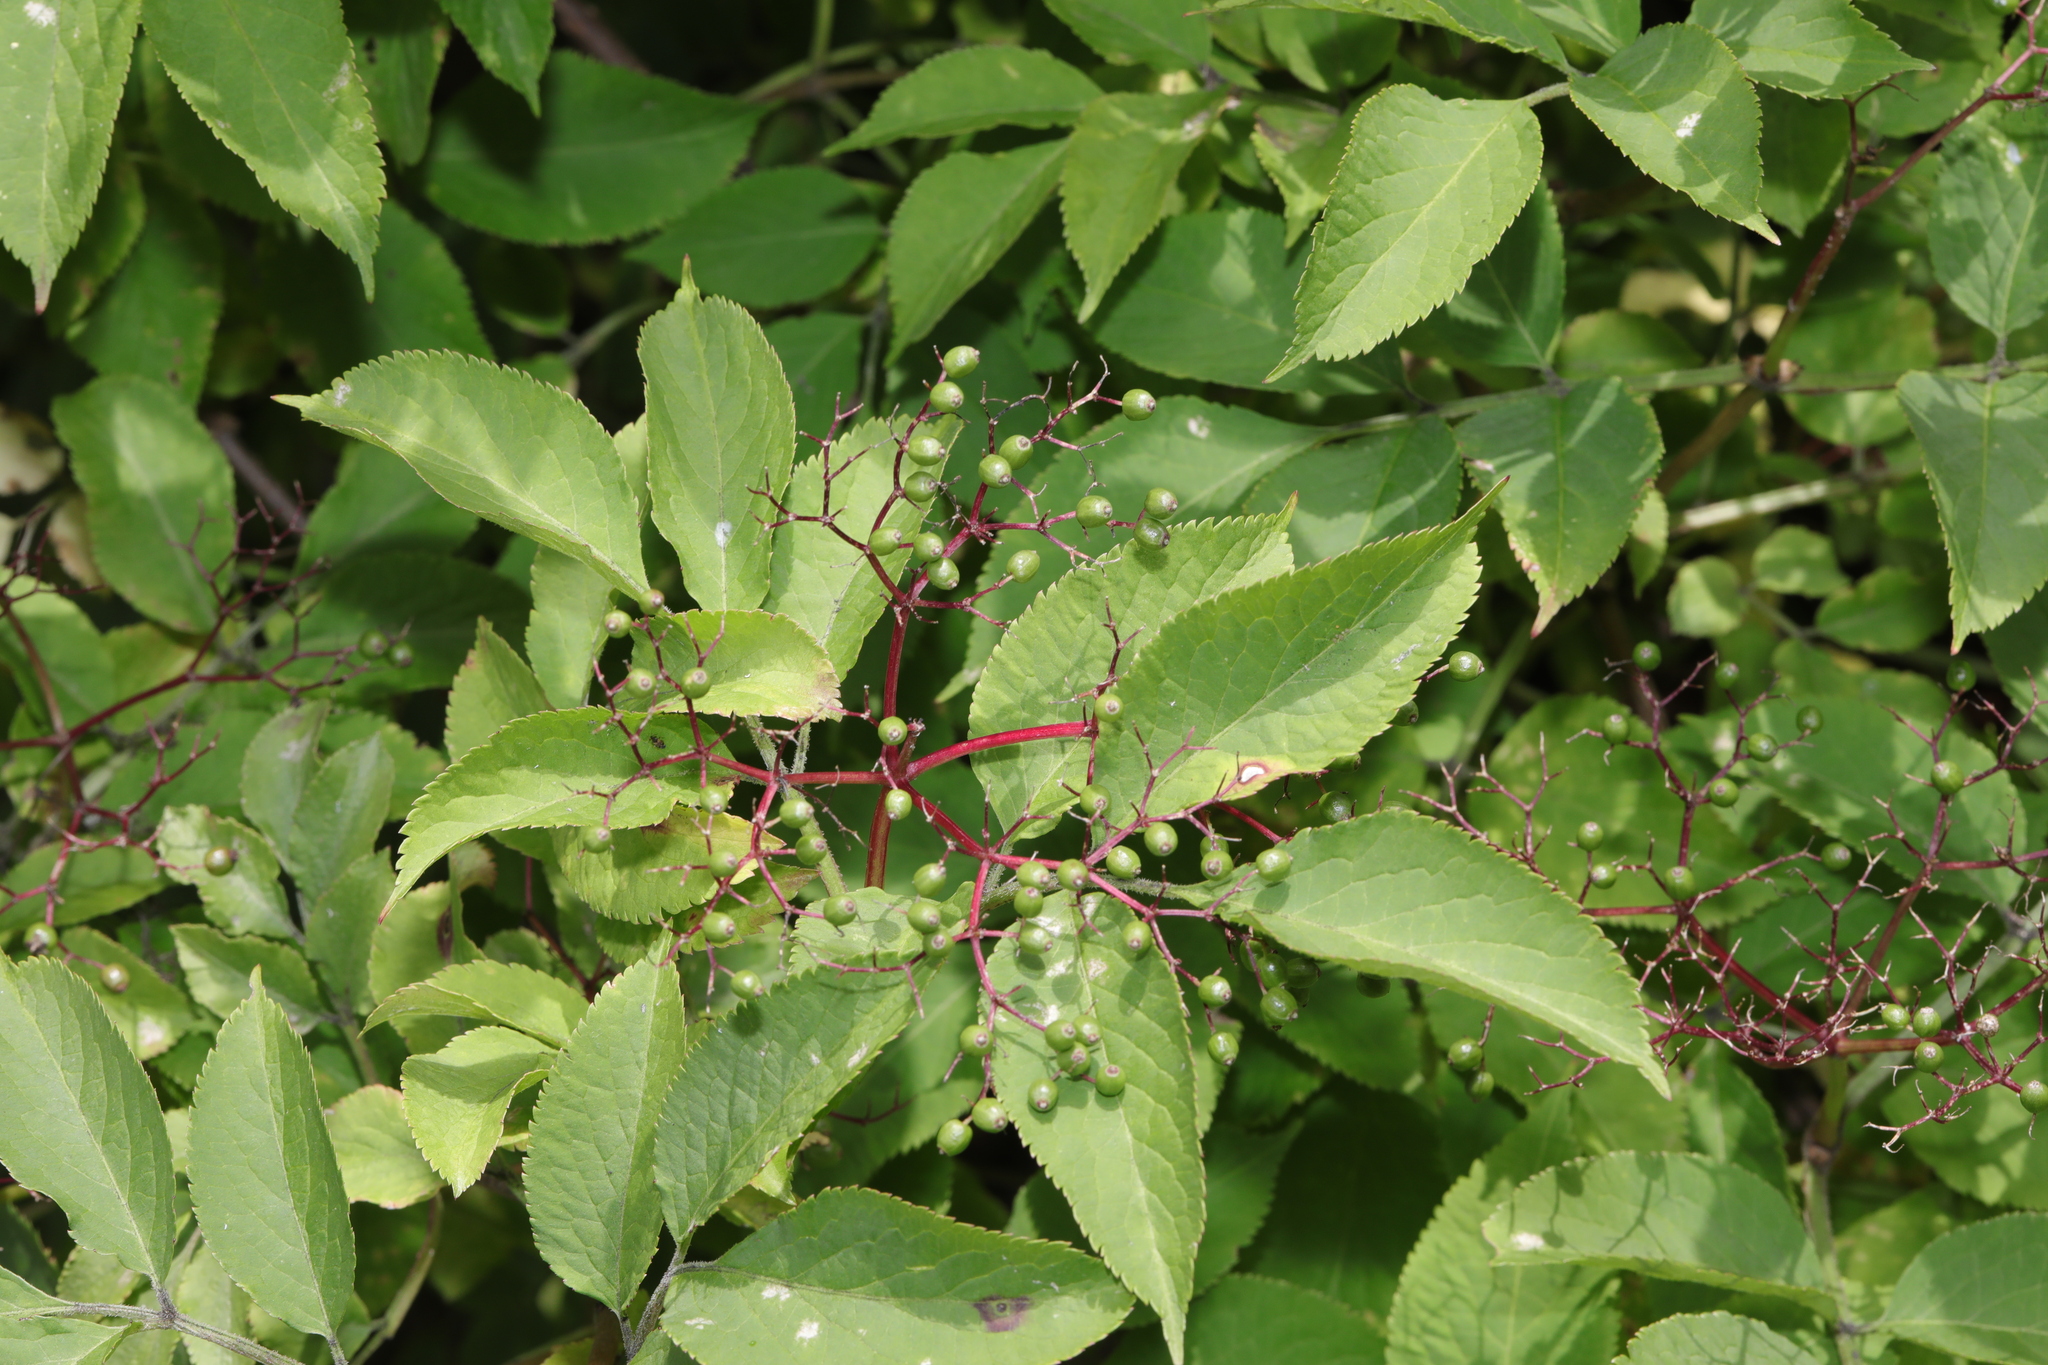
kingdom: Plantae
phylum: Tracheophyta
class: Magnoliopsida
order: Dipsacales
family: Viburnaceae
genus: Sambucus
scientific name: Sambucus nigra
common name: Elder
